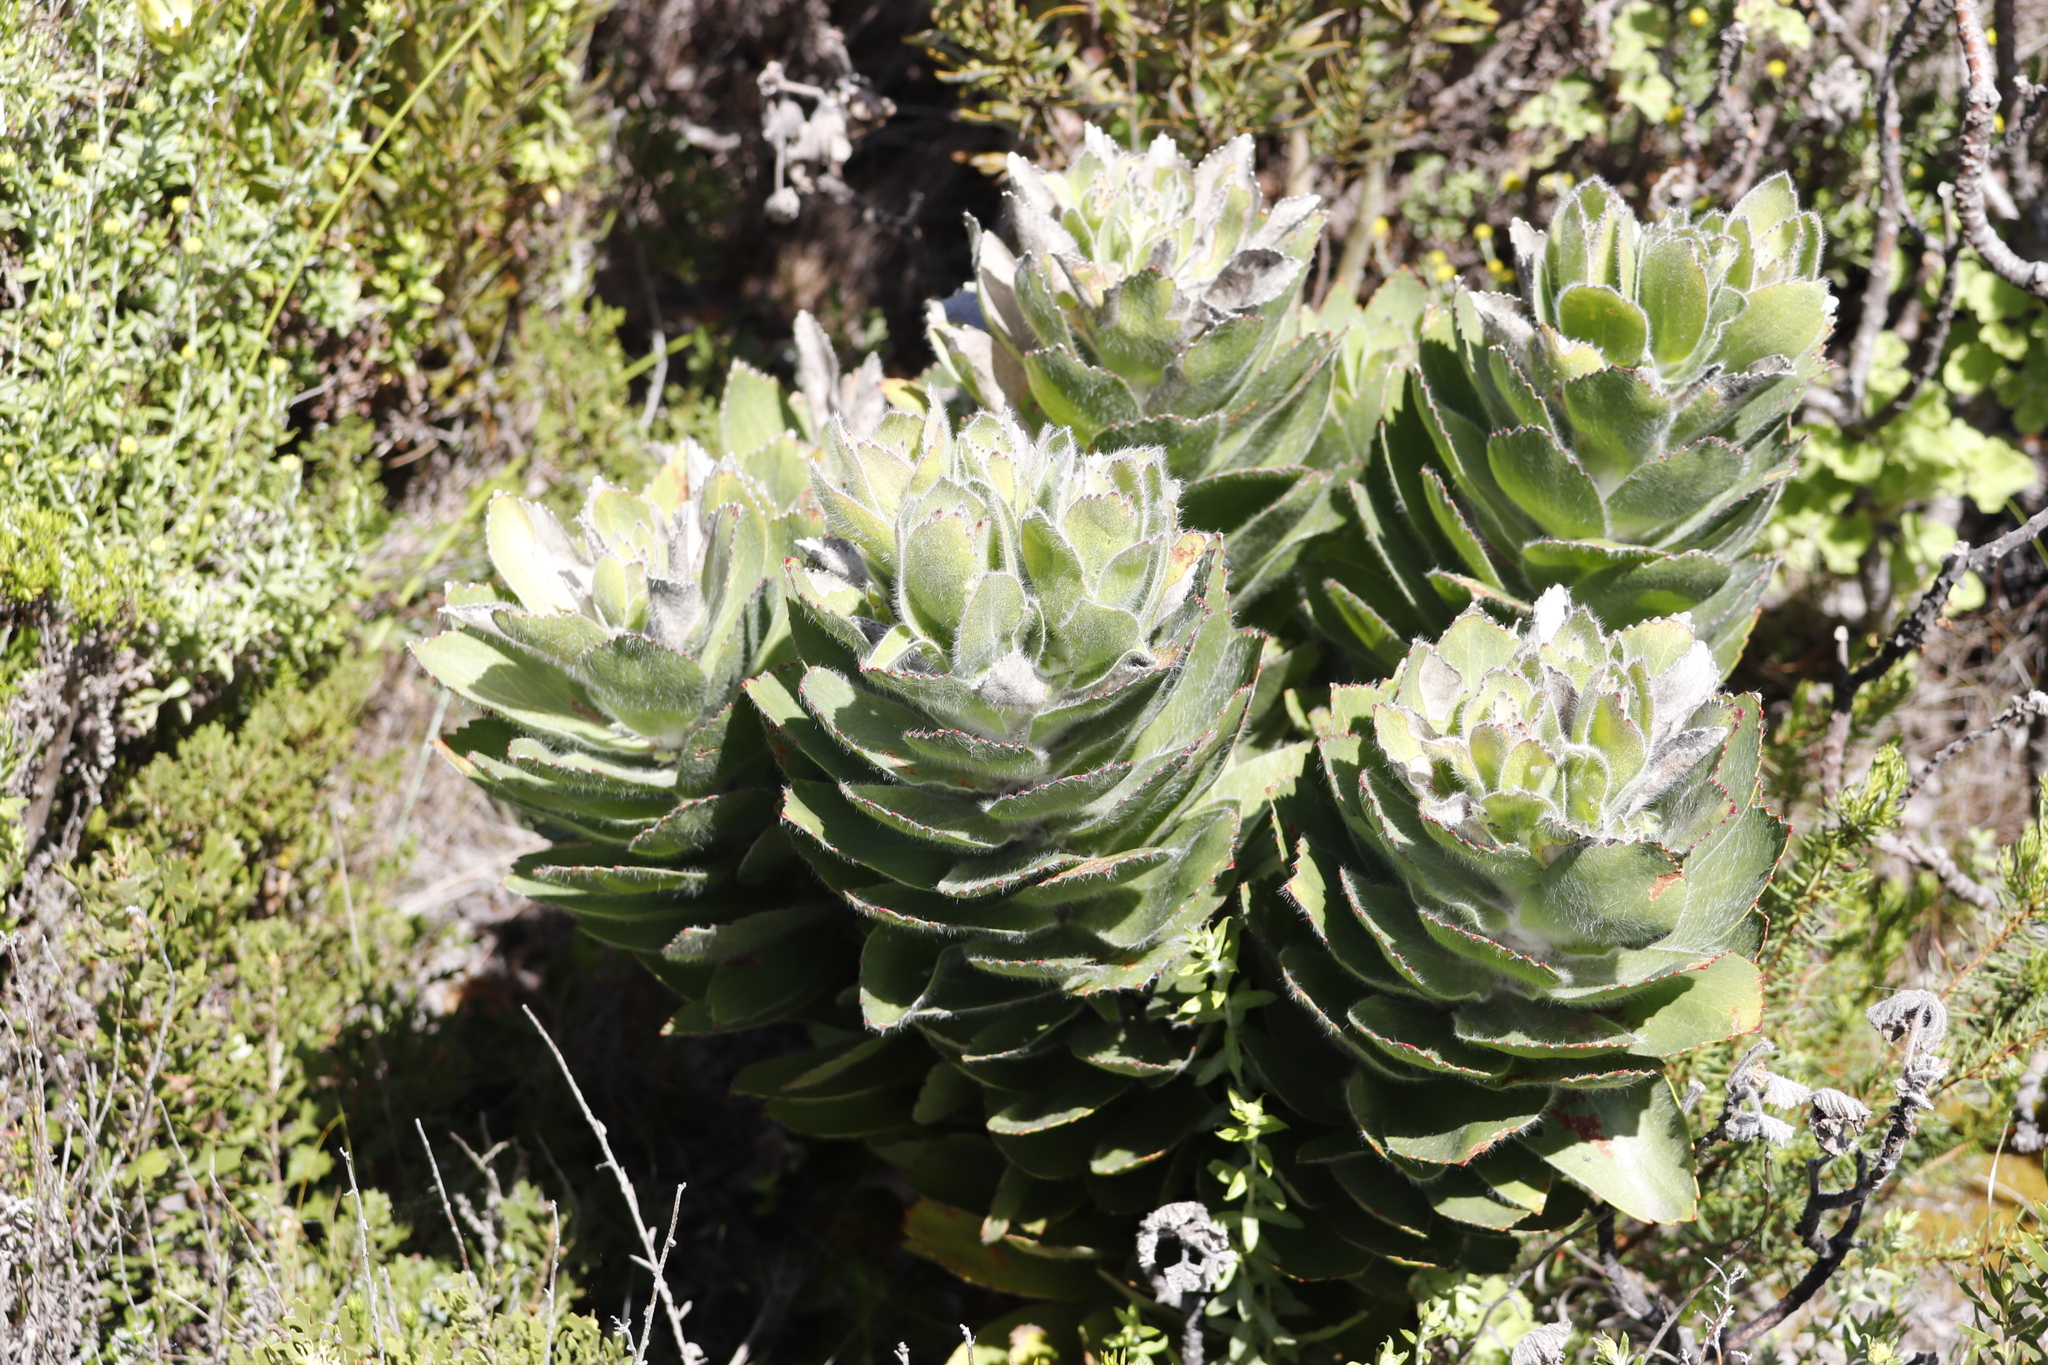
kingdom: Plantae
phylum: Tracheophyta
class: Magnoliopsida
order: Proteales
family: Proteaceae
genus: Leucospermum
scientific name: Leucospermum conocarpodendron
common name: Tree pincushion
